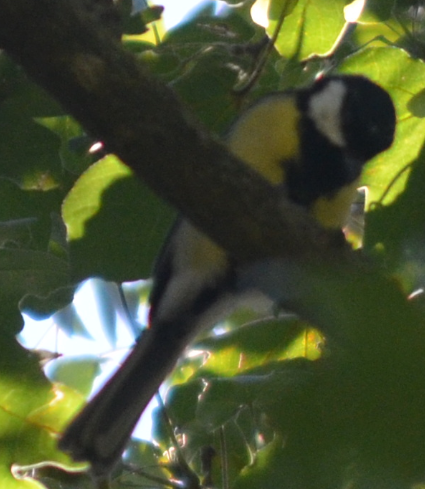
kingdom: Animalia
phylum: Chordata
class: Aves
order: Passeriformes
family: Paridae
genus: Parus
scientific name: Parus major
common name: Great tit
